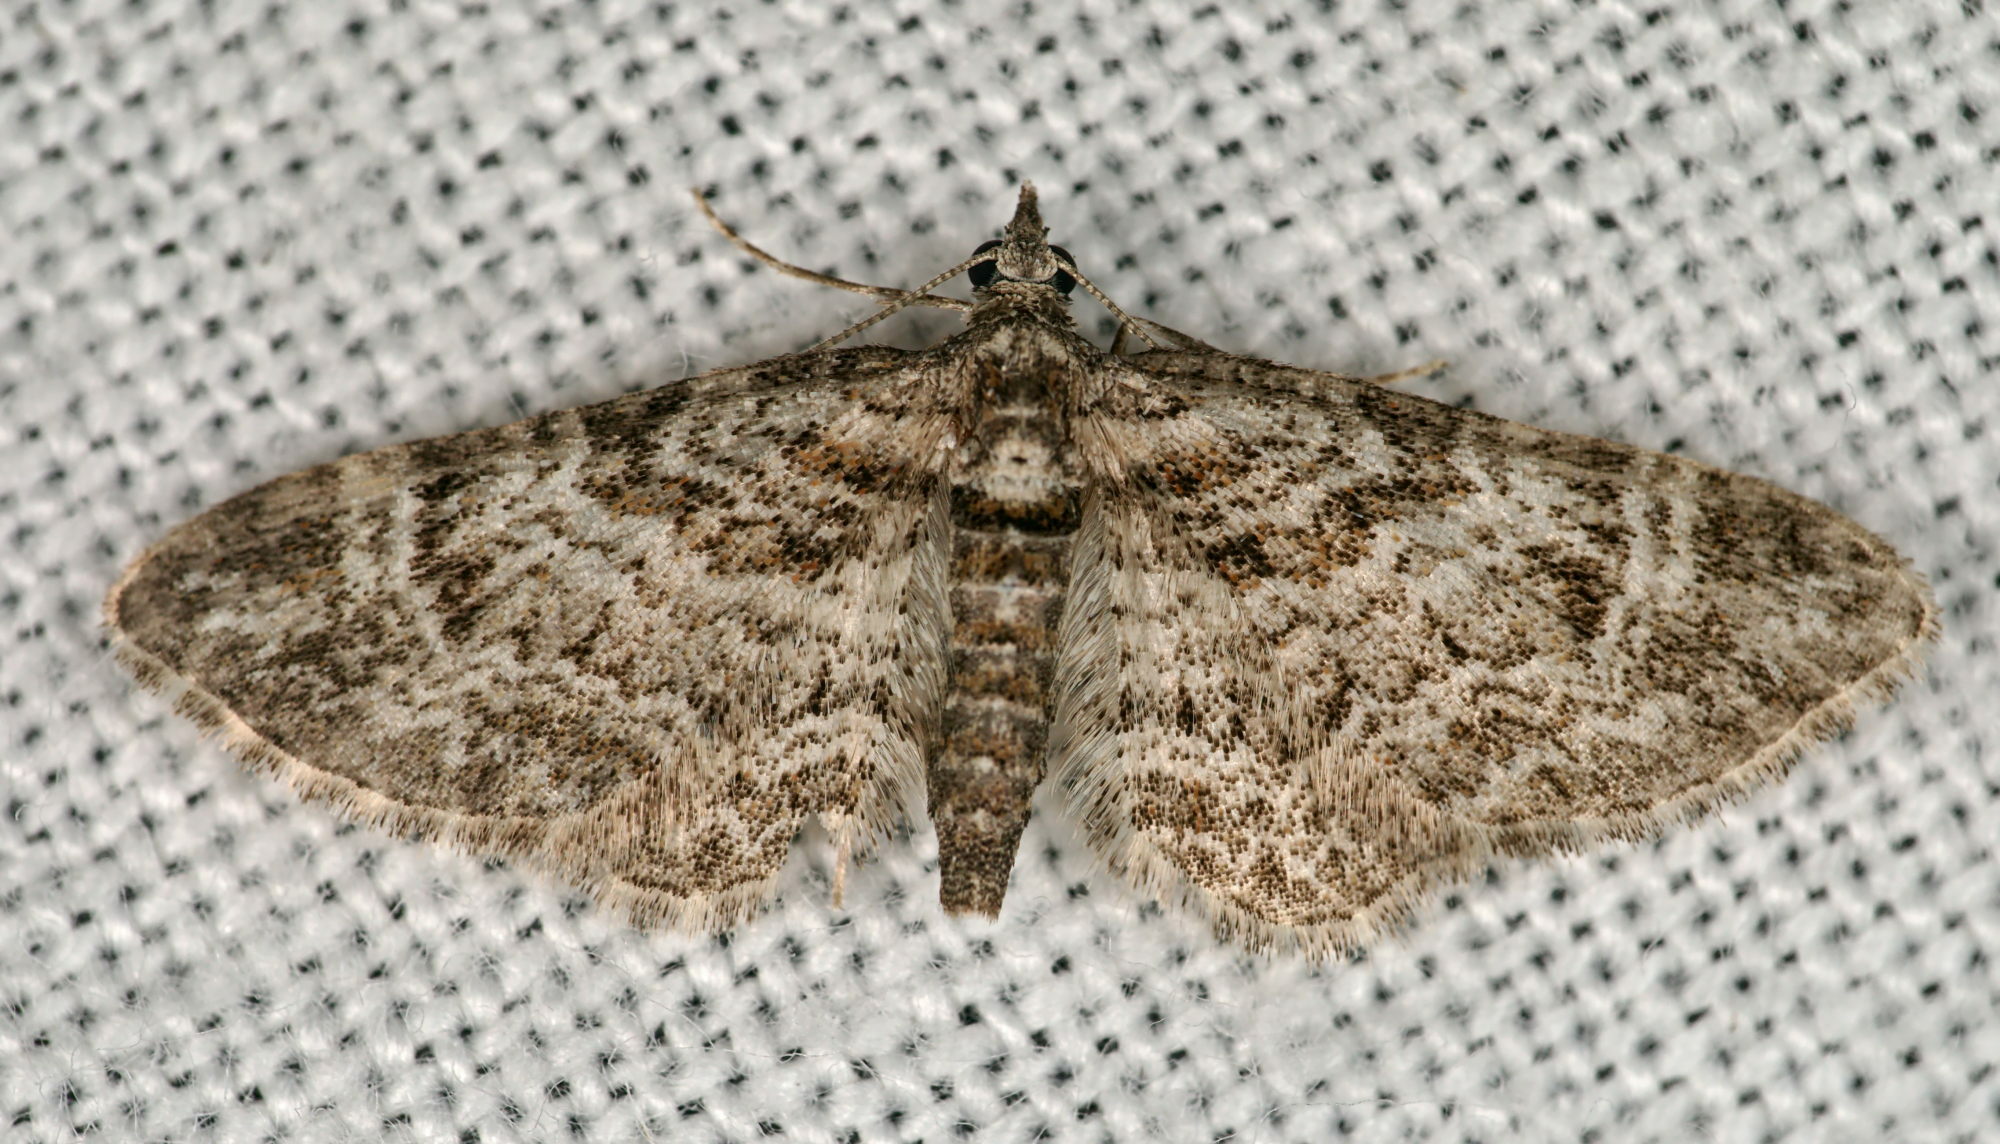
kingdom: Animalia
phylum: Arthropoda
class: Insecta
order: Lepidoptera
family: Geometridae
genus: Gymnoscelis
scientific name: Gymnoscelis rufifasciata
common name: Double-striped pug
